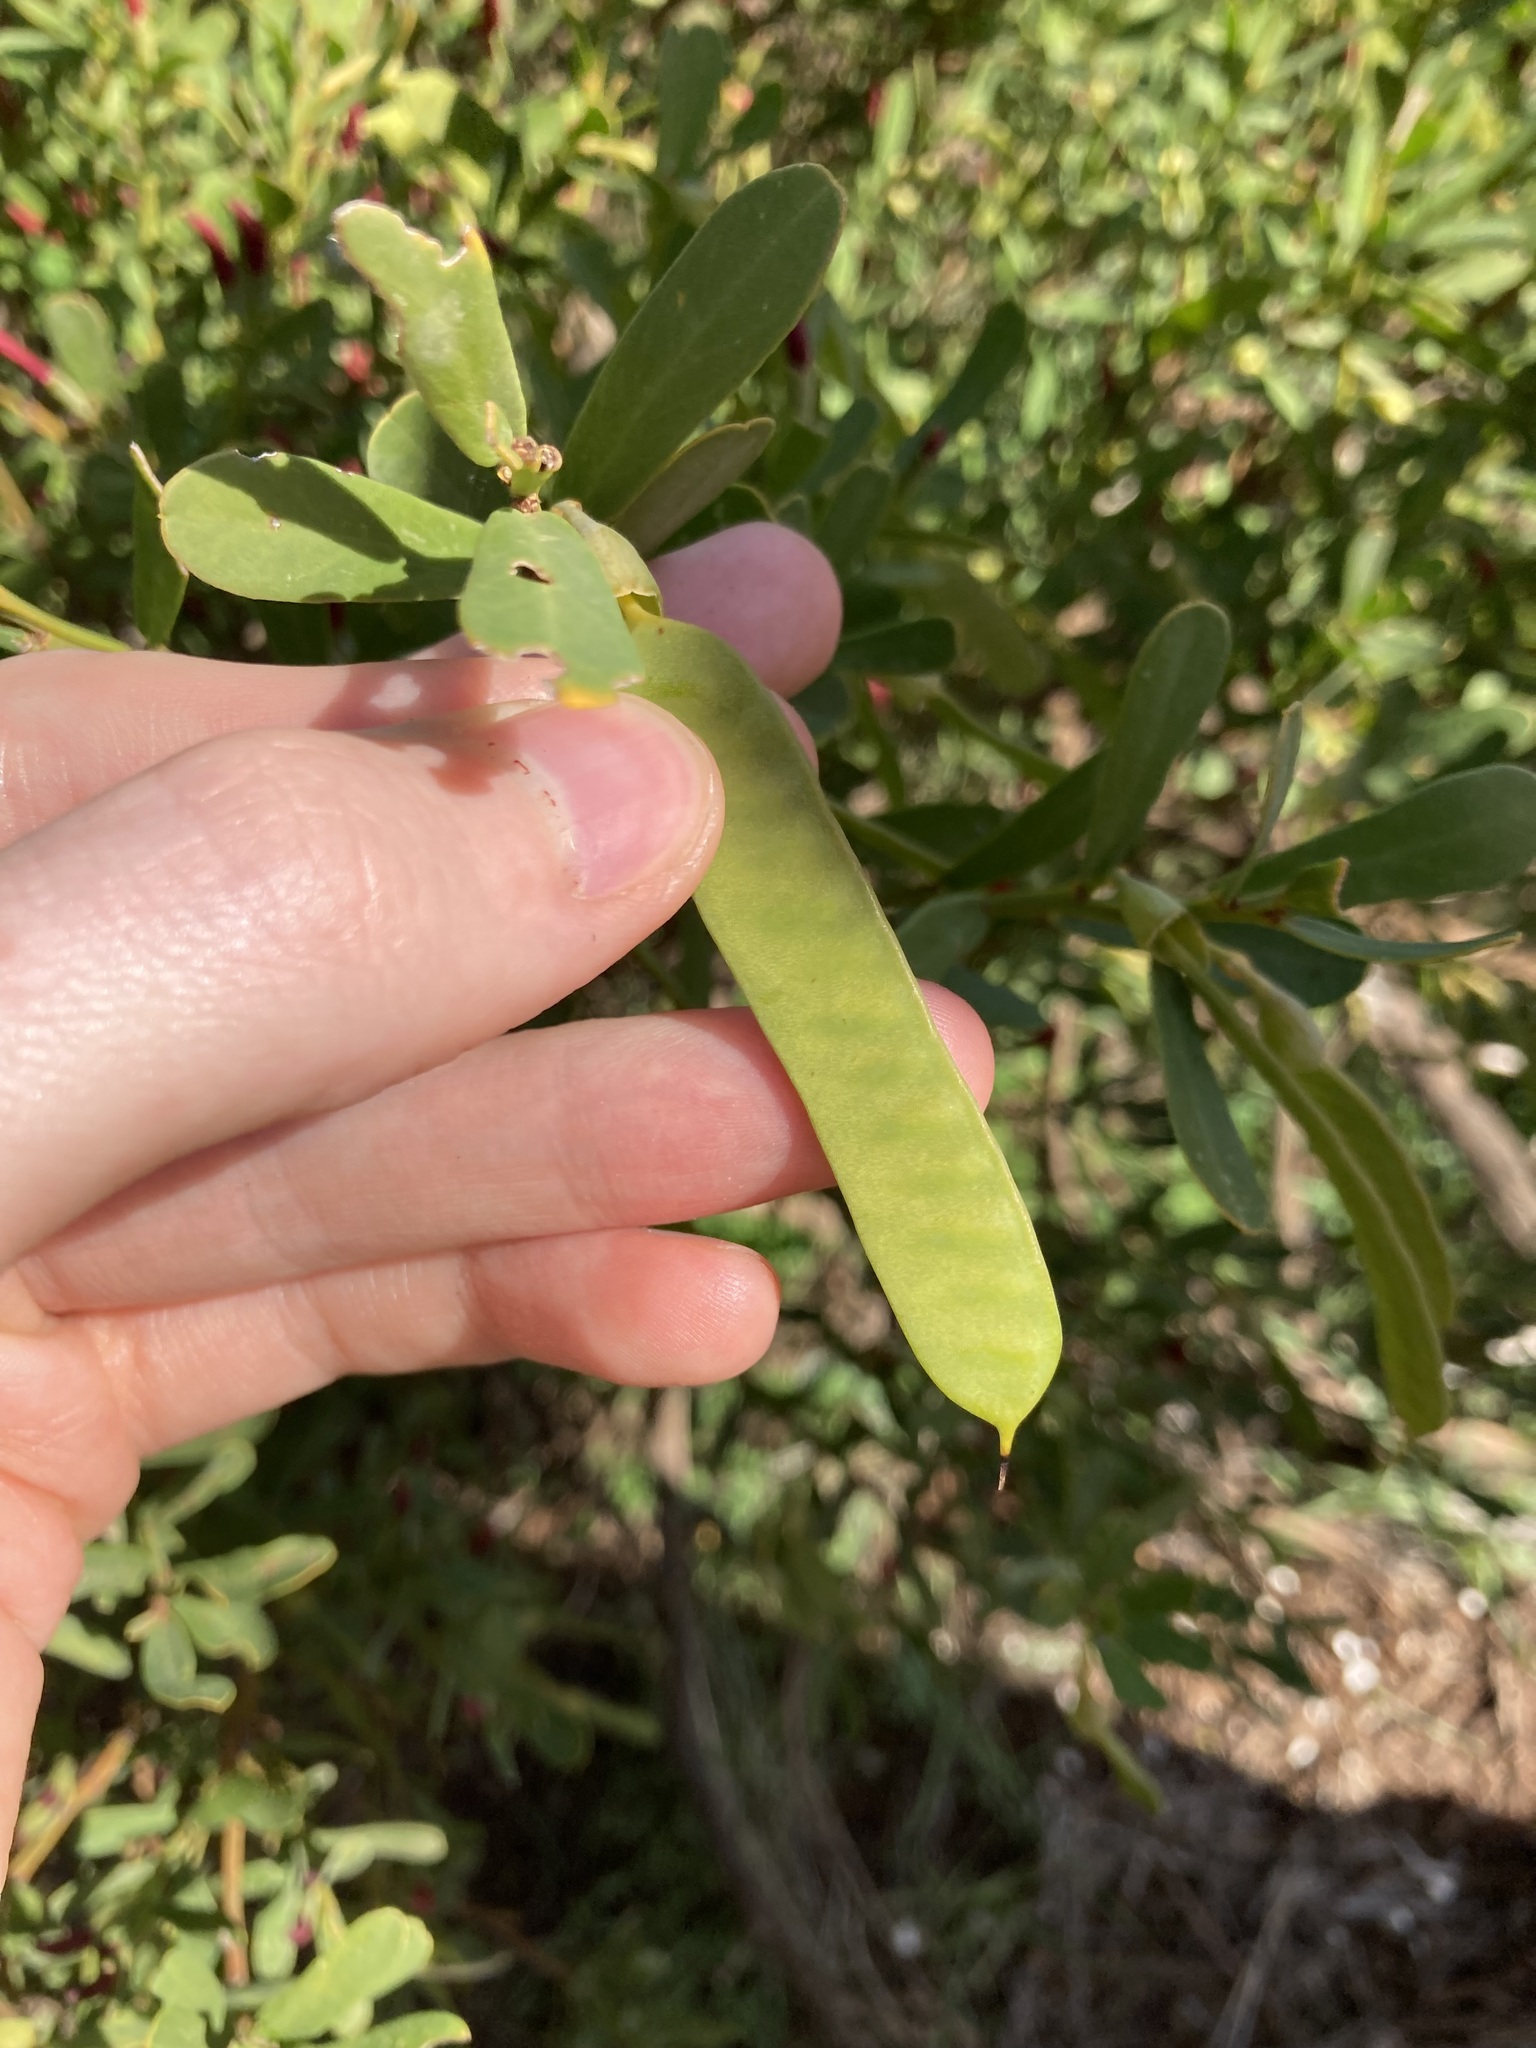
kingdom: Plantae
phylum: Tracheophyta
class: Magnoliopsida
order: Fabales
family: Fabaceae
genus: Templetonia
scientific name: Templetonia retusa
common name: Cockies'-tongue
